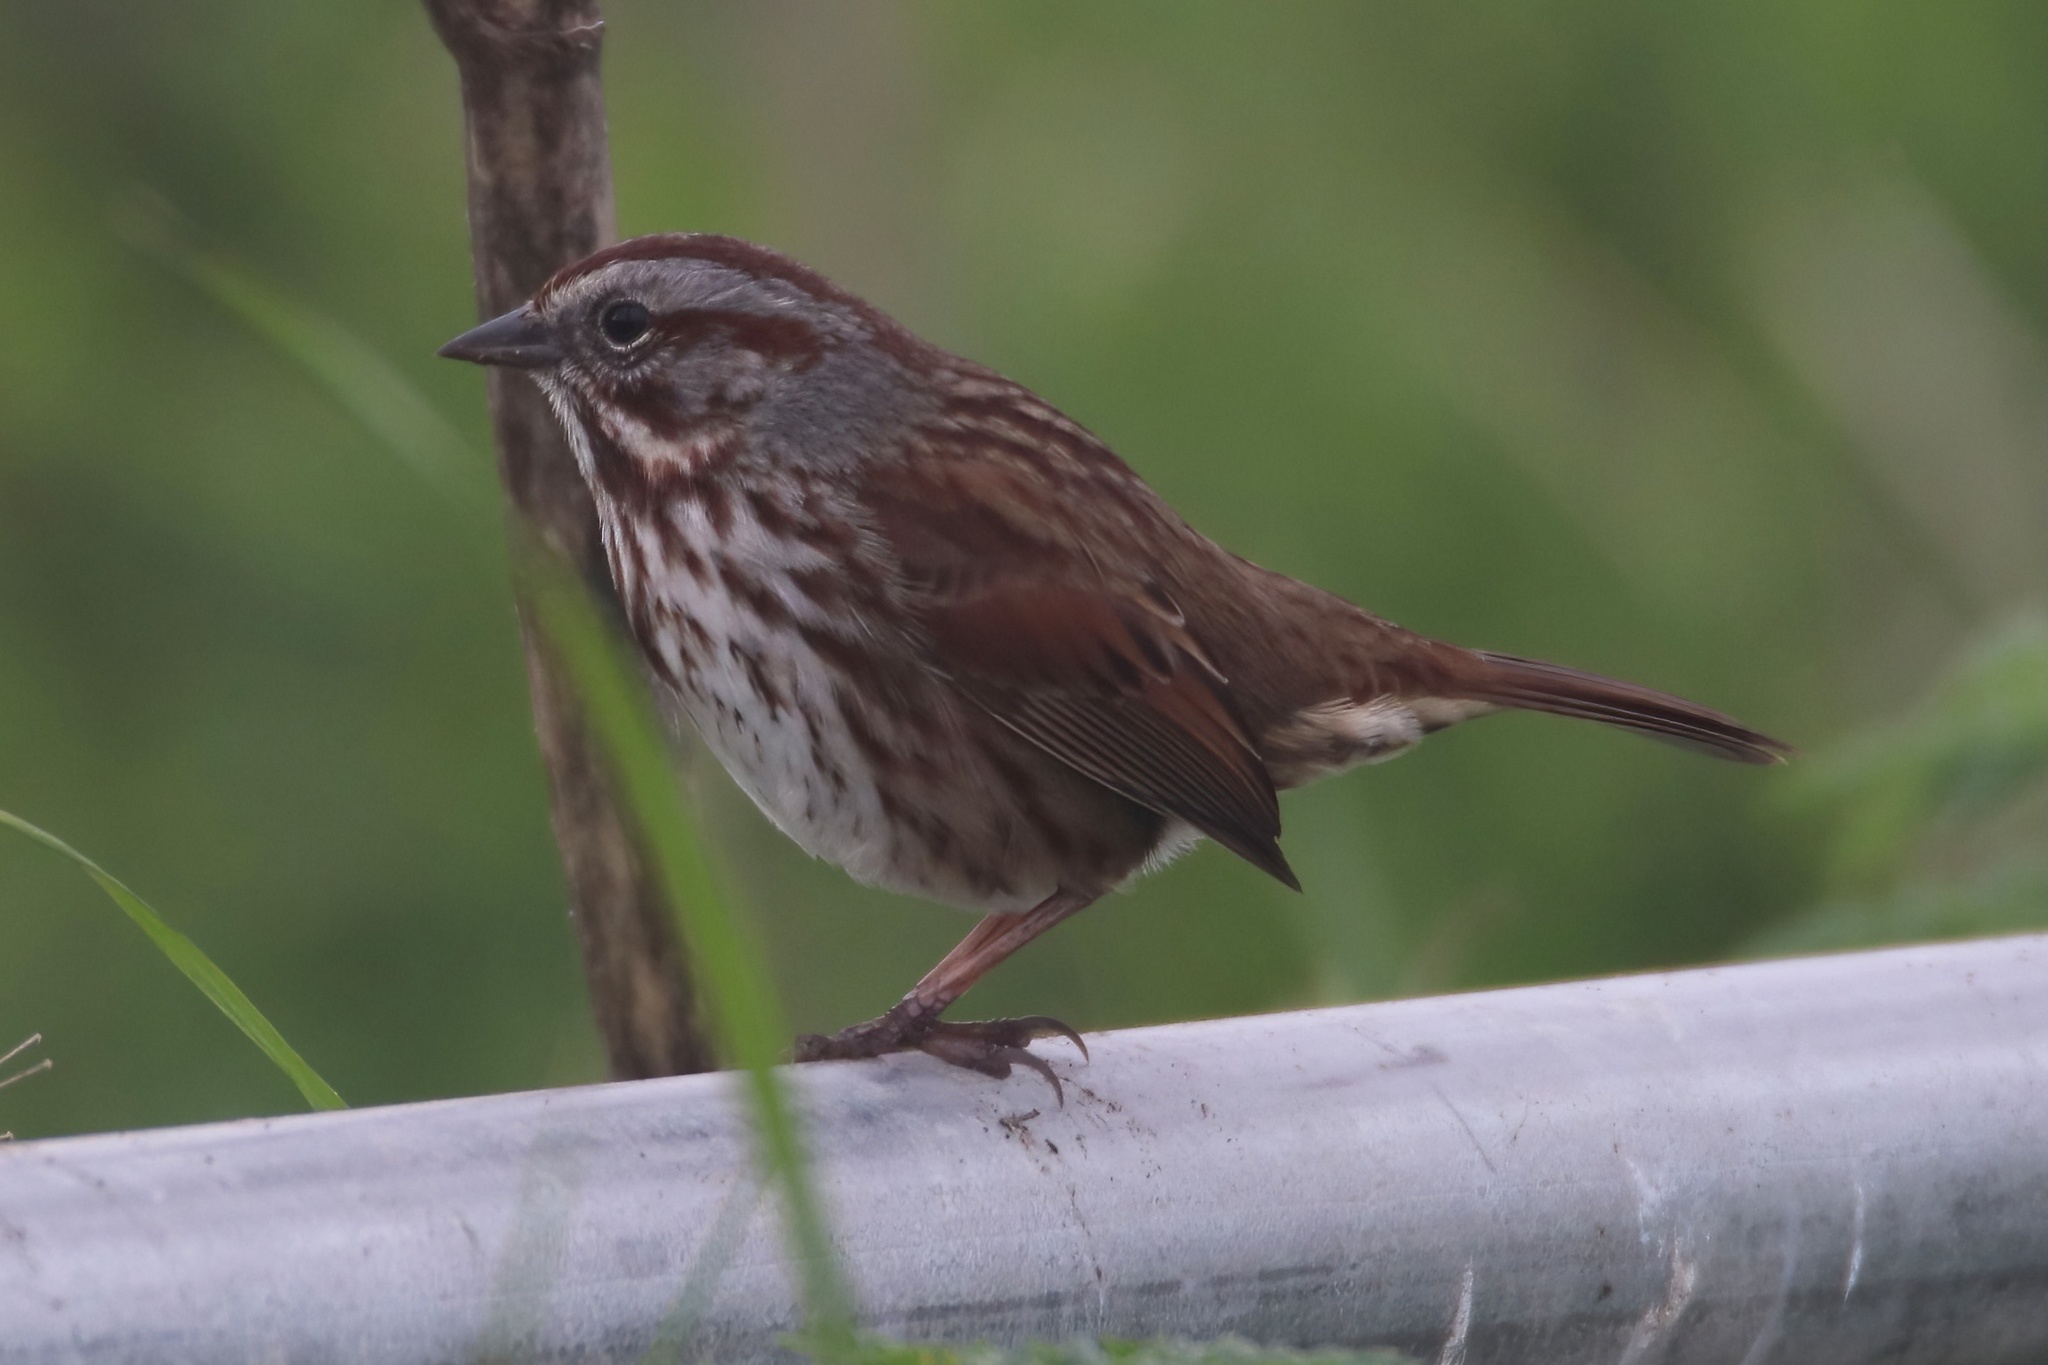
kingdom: Animalia
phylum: Chordata
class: Aves
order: Passeriformes
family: Passerellidae
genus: Melospiza
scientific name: Melospiza melodia
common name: Song sparrow
